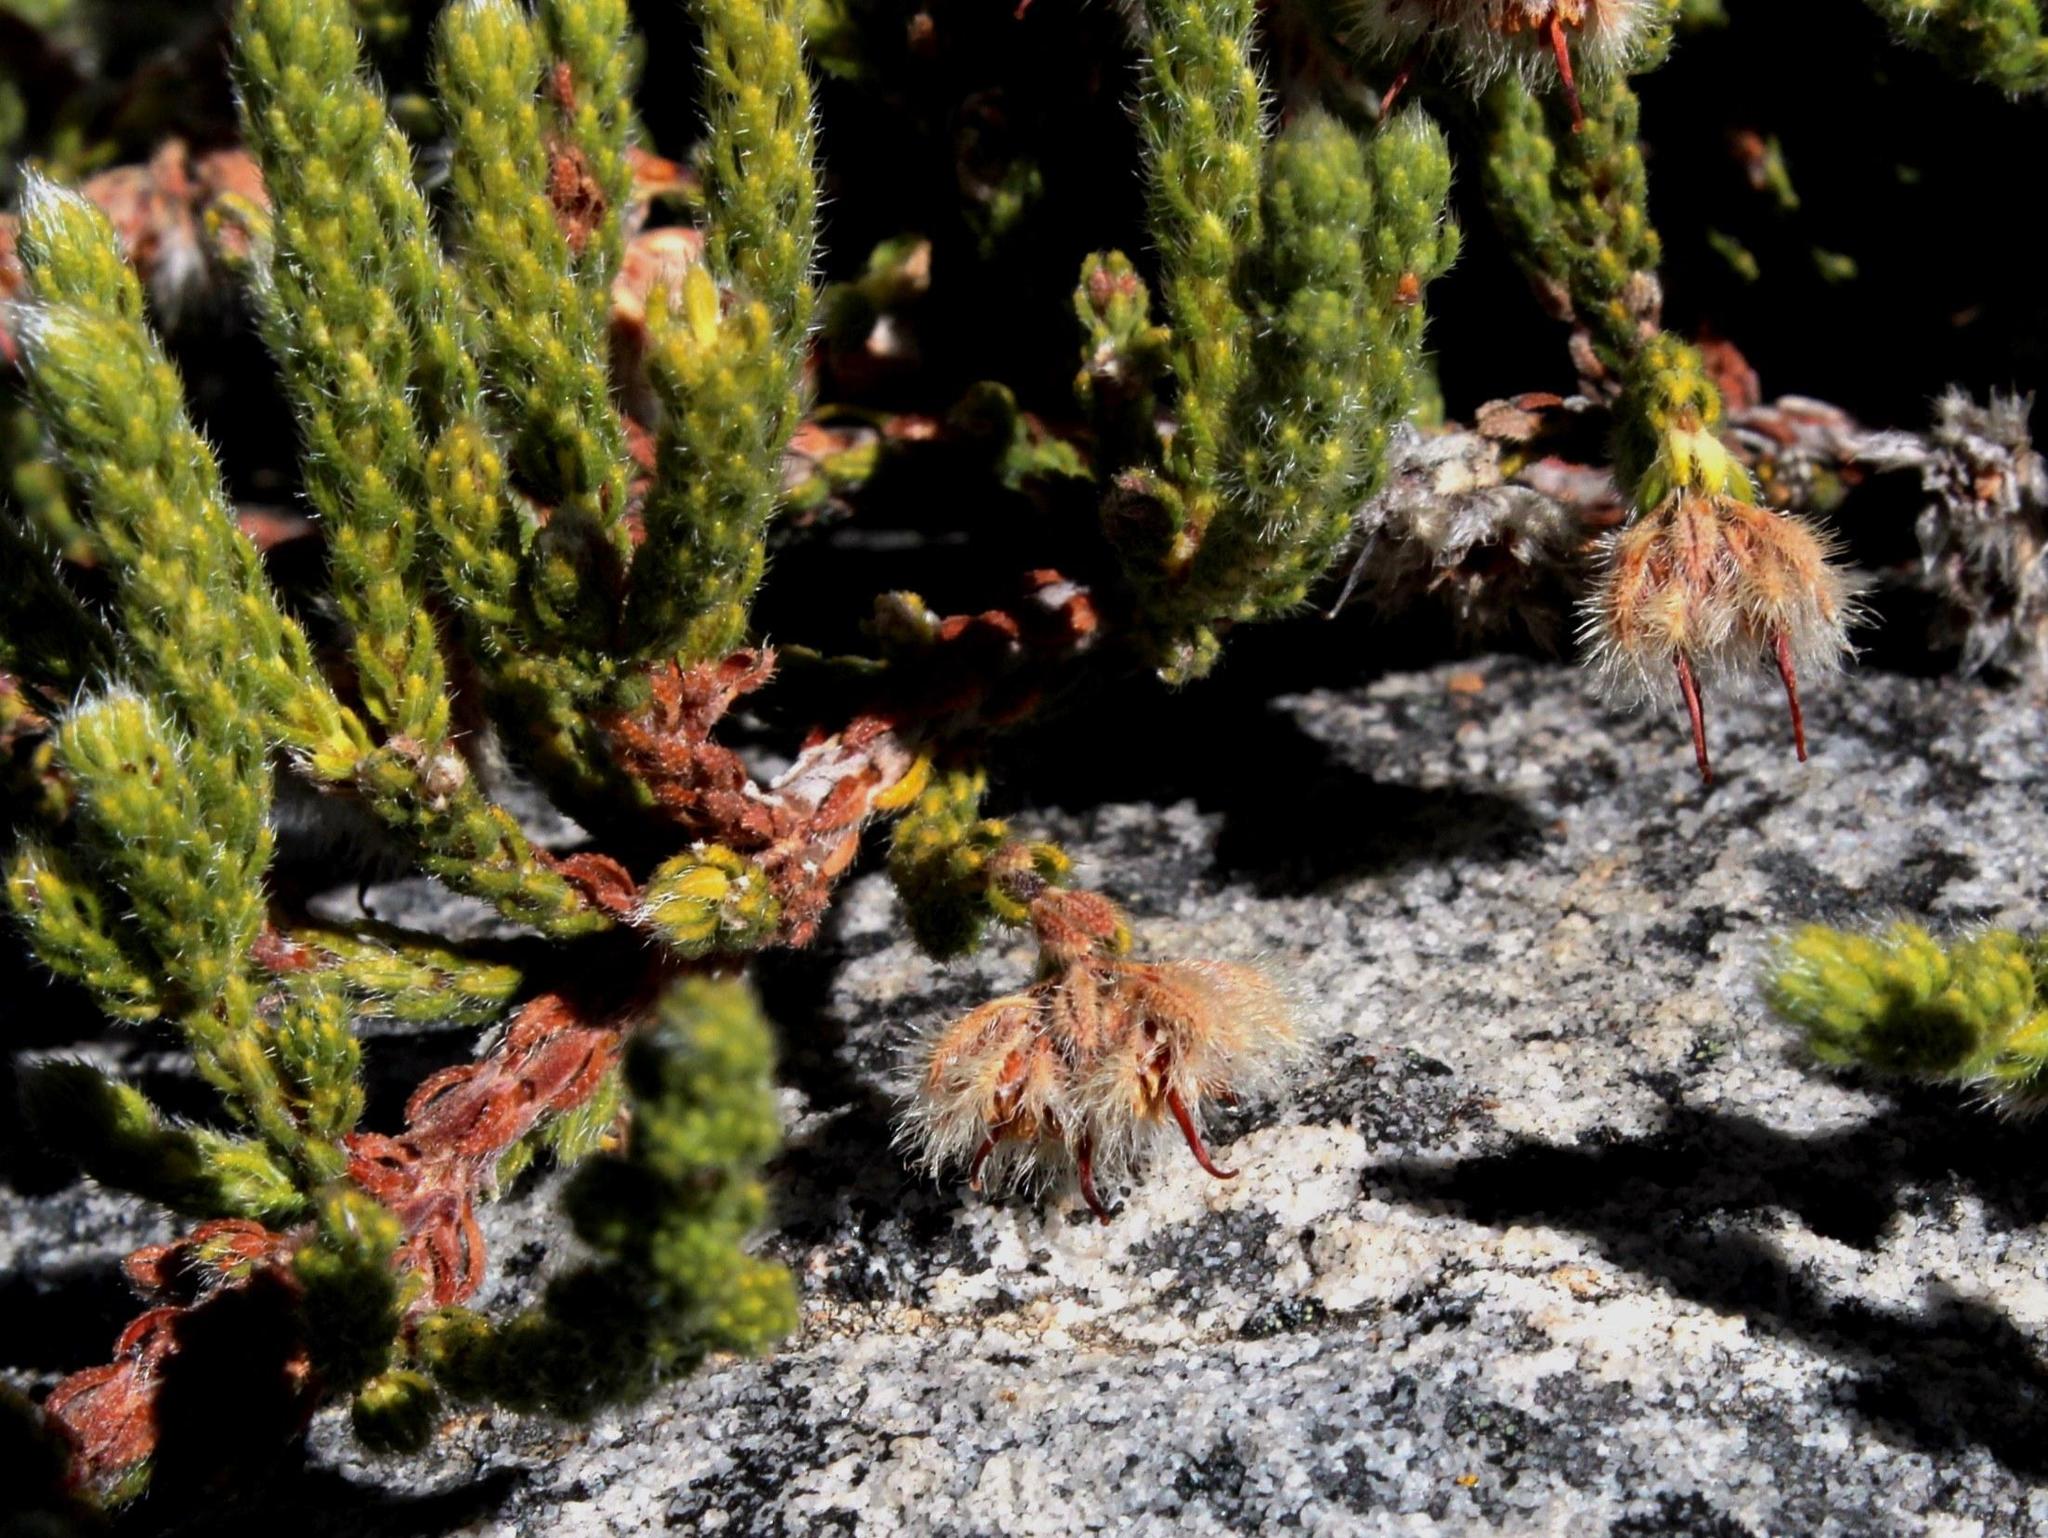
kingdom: Plantae
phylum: Tracheophyta
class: Magnoliopsida
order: Ericales
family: Ericaceae
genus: Erica
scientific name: Erica senilis
